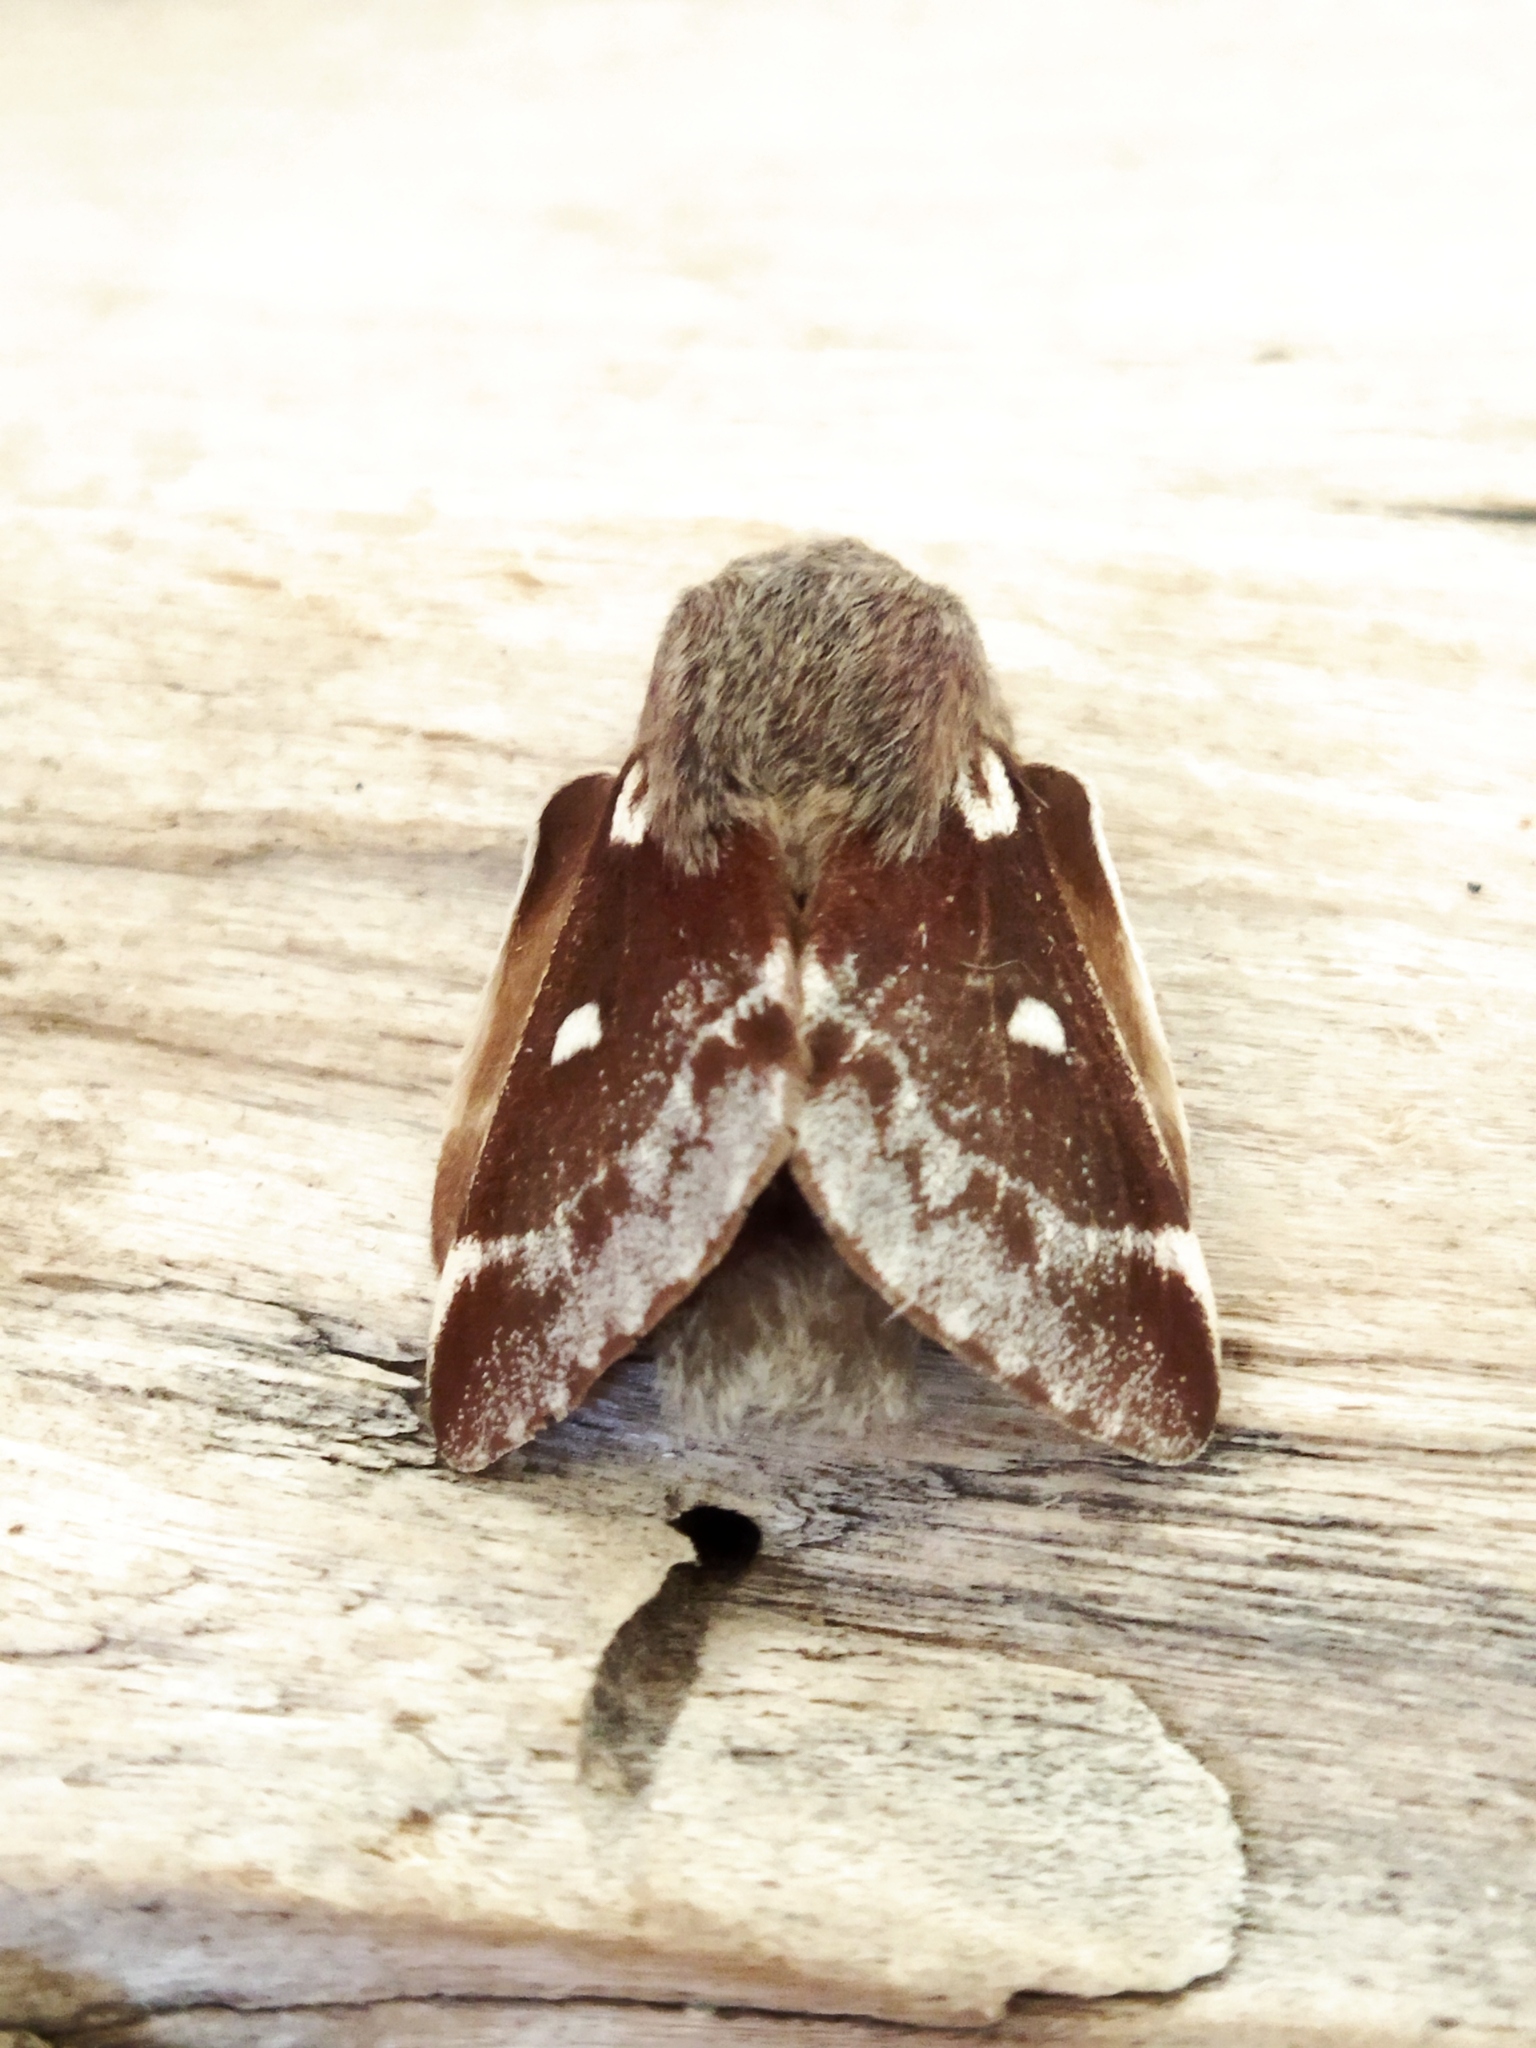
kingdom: Animalia
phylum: Arthropoda
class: Insecta
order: Lepidoptera
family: Lasiocampidae
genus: Eriogaster
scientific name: Eriogaster lanestris
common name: Small eggar
